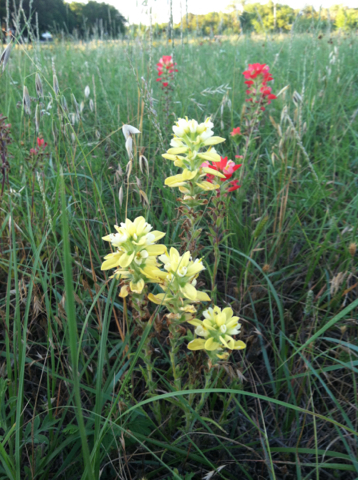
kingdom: Plantae
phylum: Tracheophyta
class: Magnoliopsida
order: Lamiales
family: Orobanchaceae
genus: Castilleja
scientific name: Castilleja indivisa
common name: Texas paintbrush
